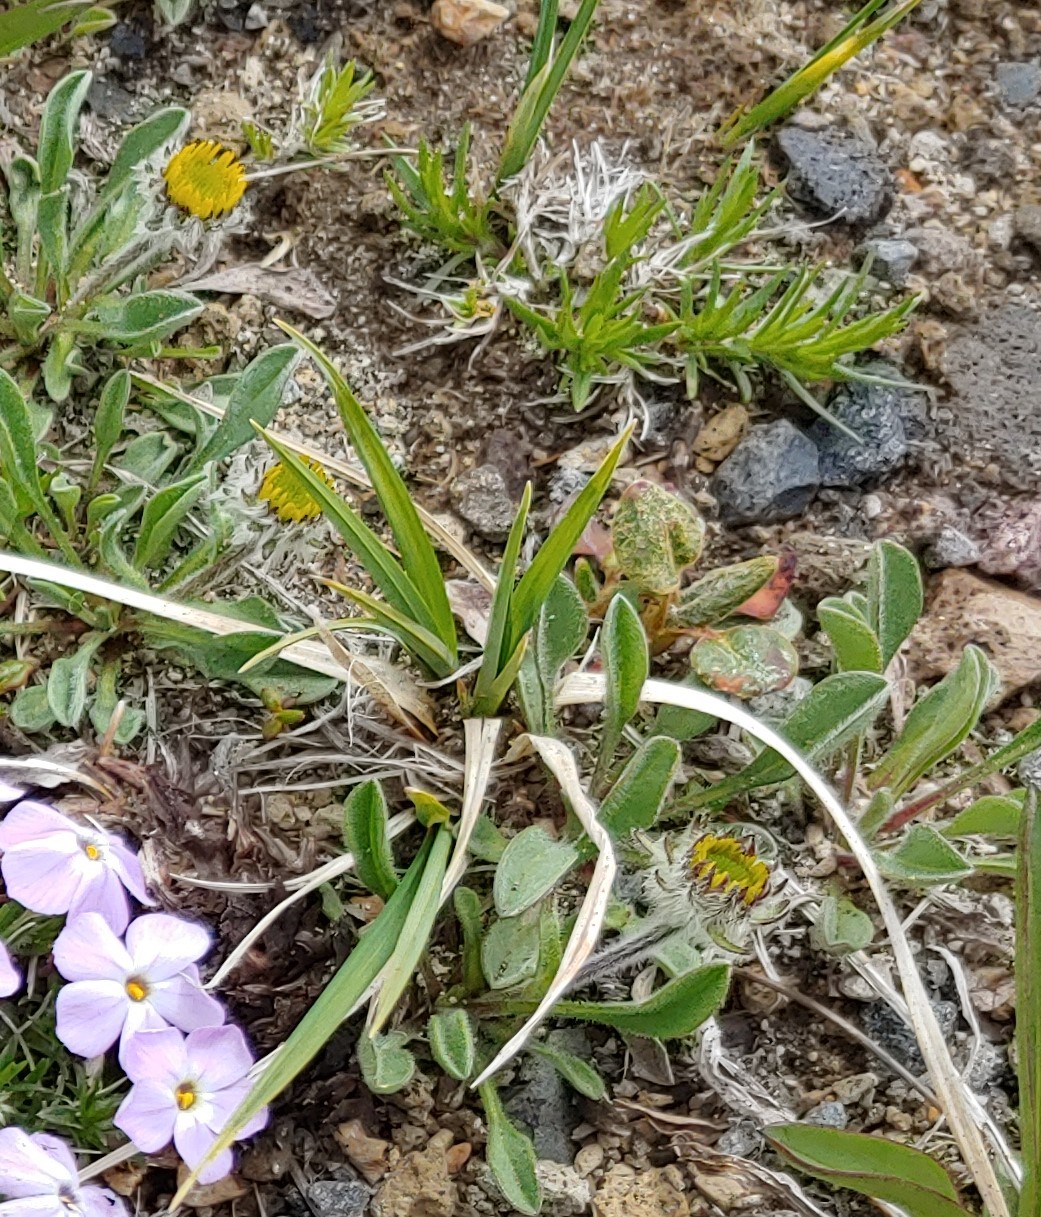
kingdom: Plantae
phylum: Tracheophyta
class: Magnoliopsida
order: Asterales
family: Asteraceae
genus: Erigeron
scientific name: Erigeron aureus
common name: Alpine yellow fleabane
